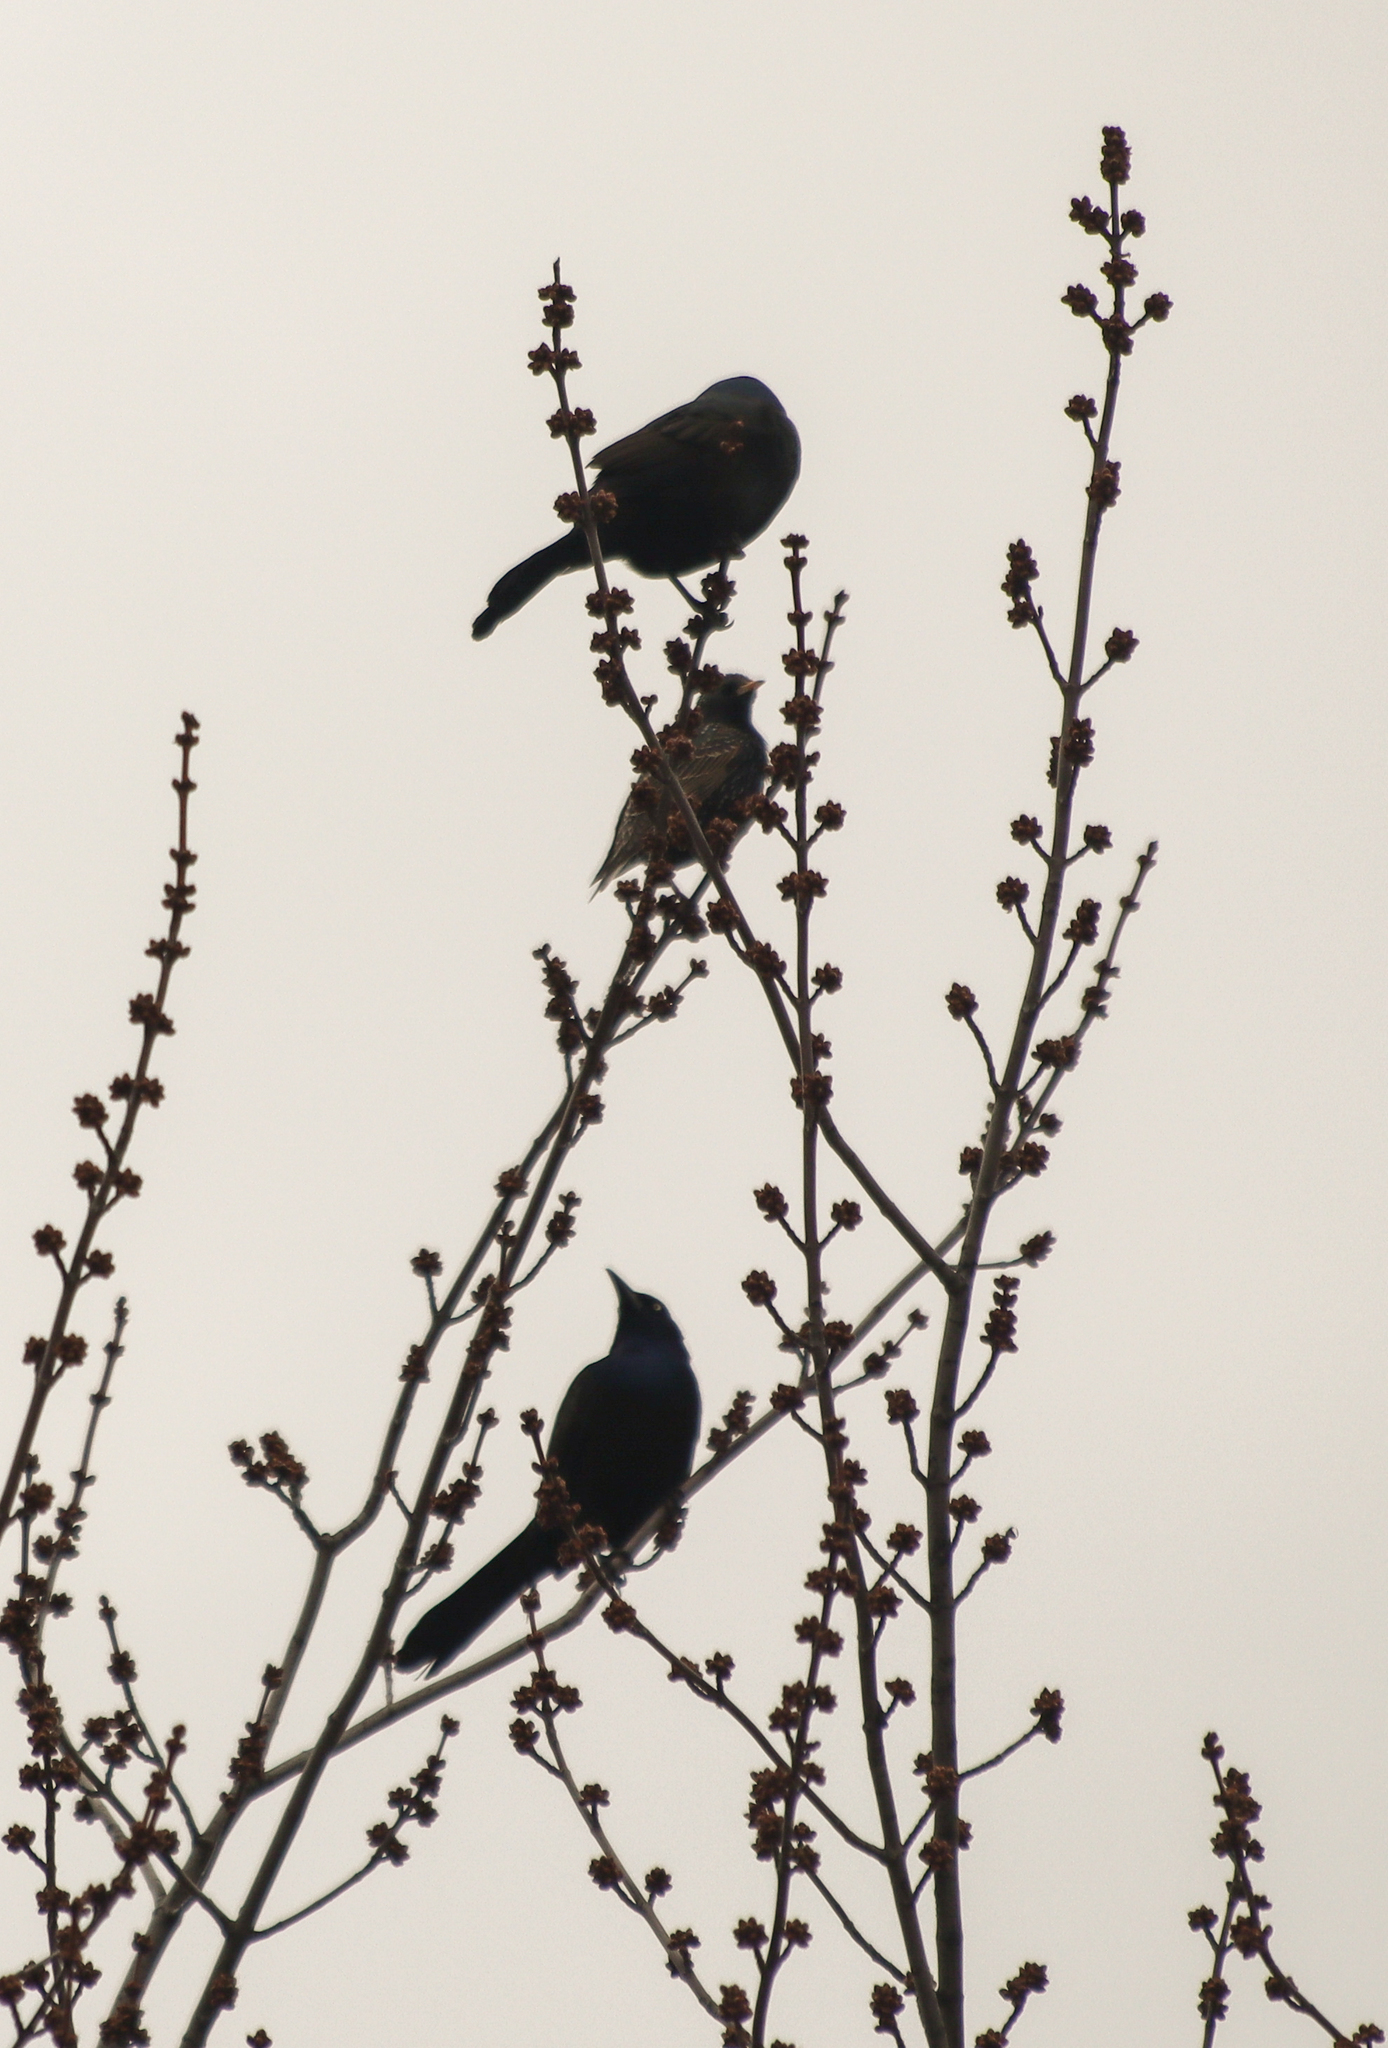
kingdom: Animalia
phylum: Chordata
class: Aves
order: Passeriformes
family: Icteridae
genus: Quiscalus
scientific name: Quiscalus quiscula
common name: Common grackle
